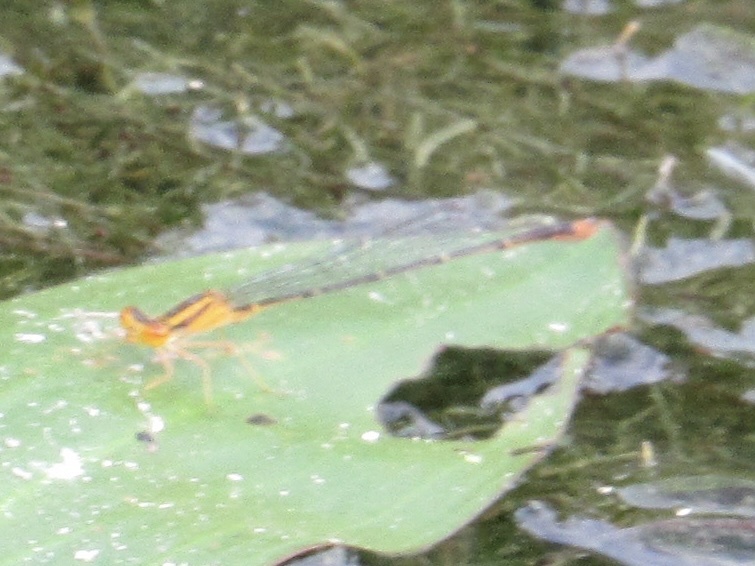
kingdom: Animalia
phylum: Arthropoda
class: Insecta
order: Odonata
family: Coenagrionidae
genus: Enallagma
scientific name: Enallagma signatum
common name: Orange bluet
